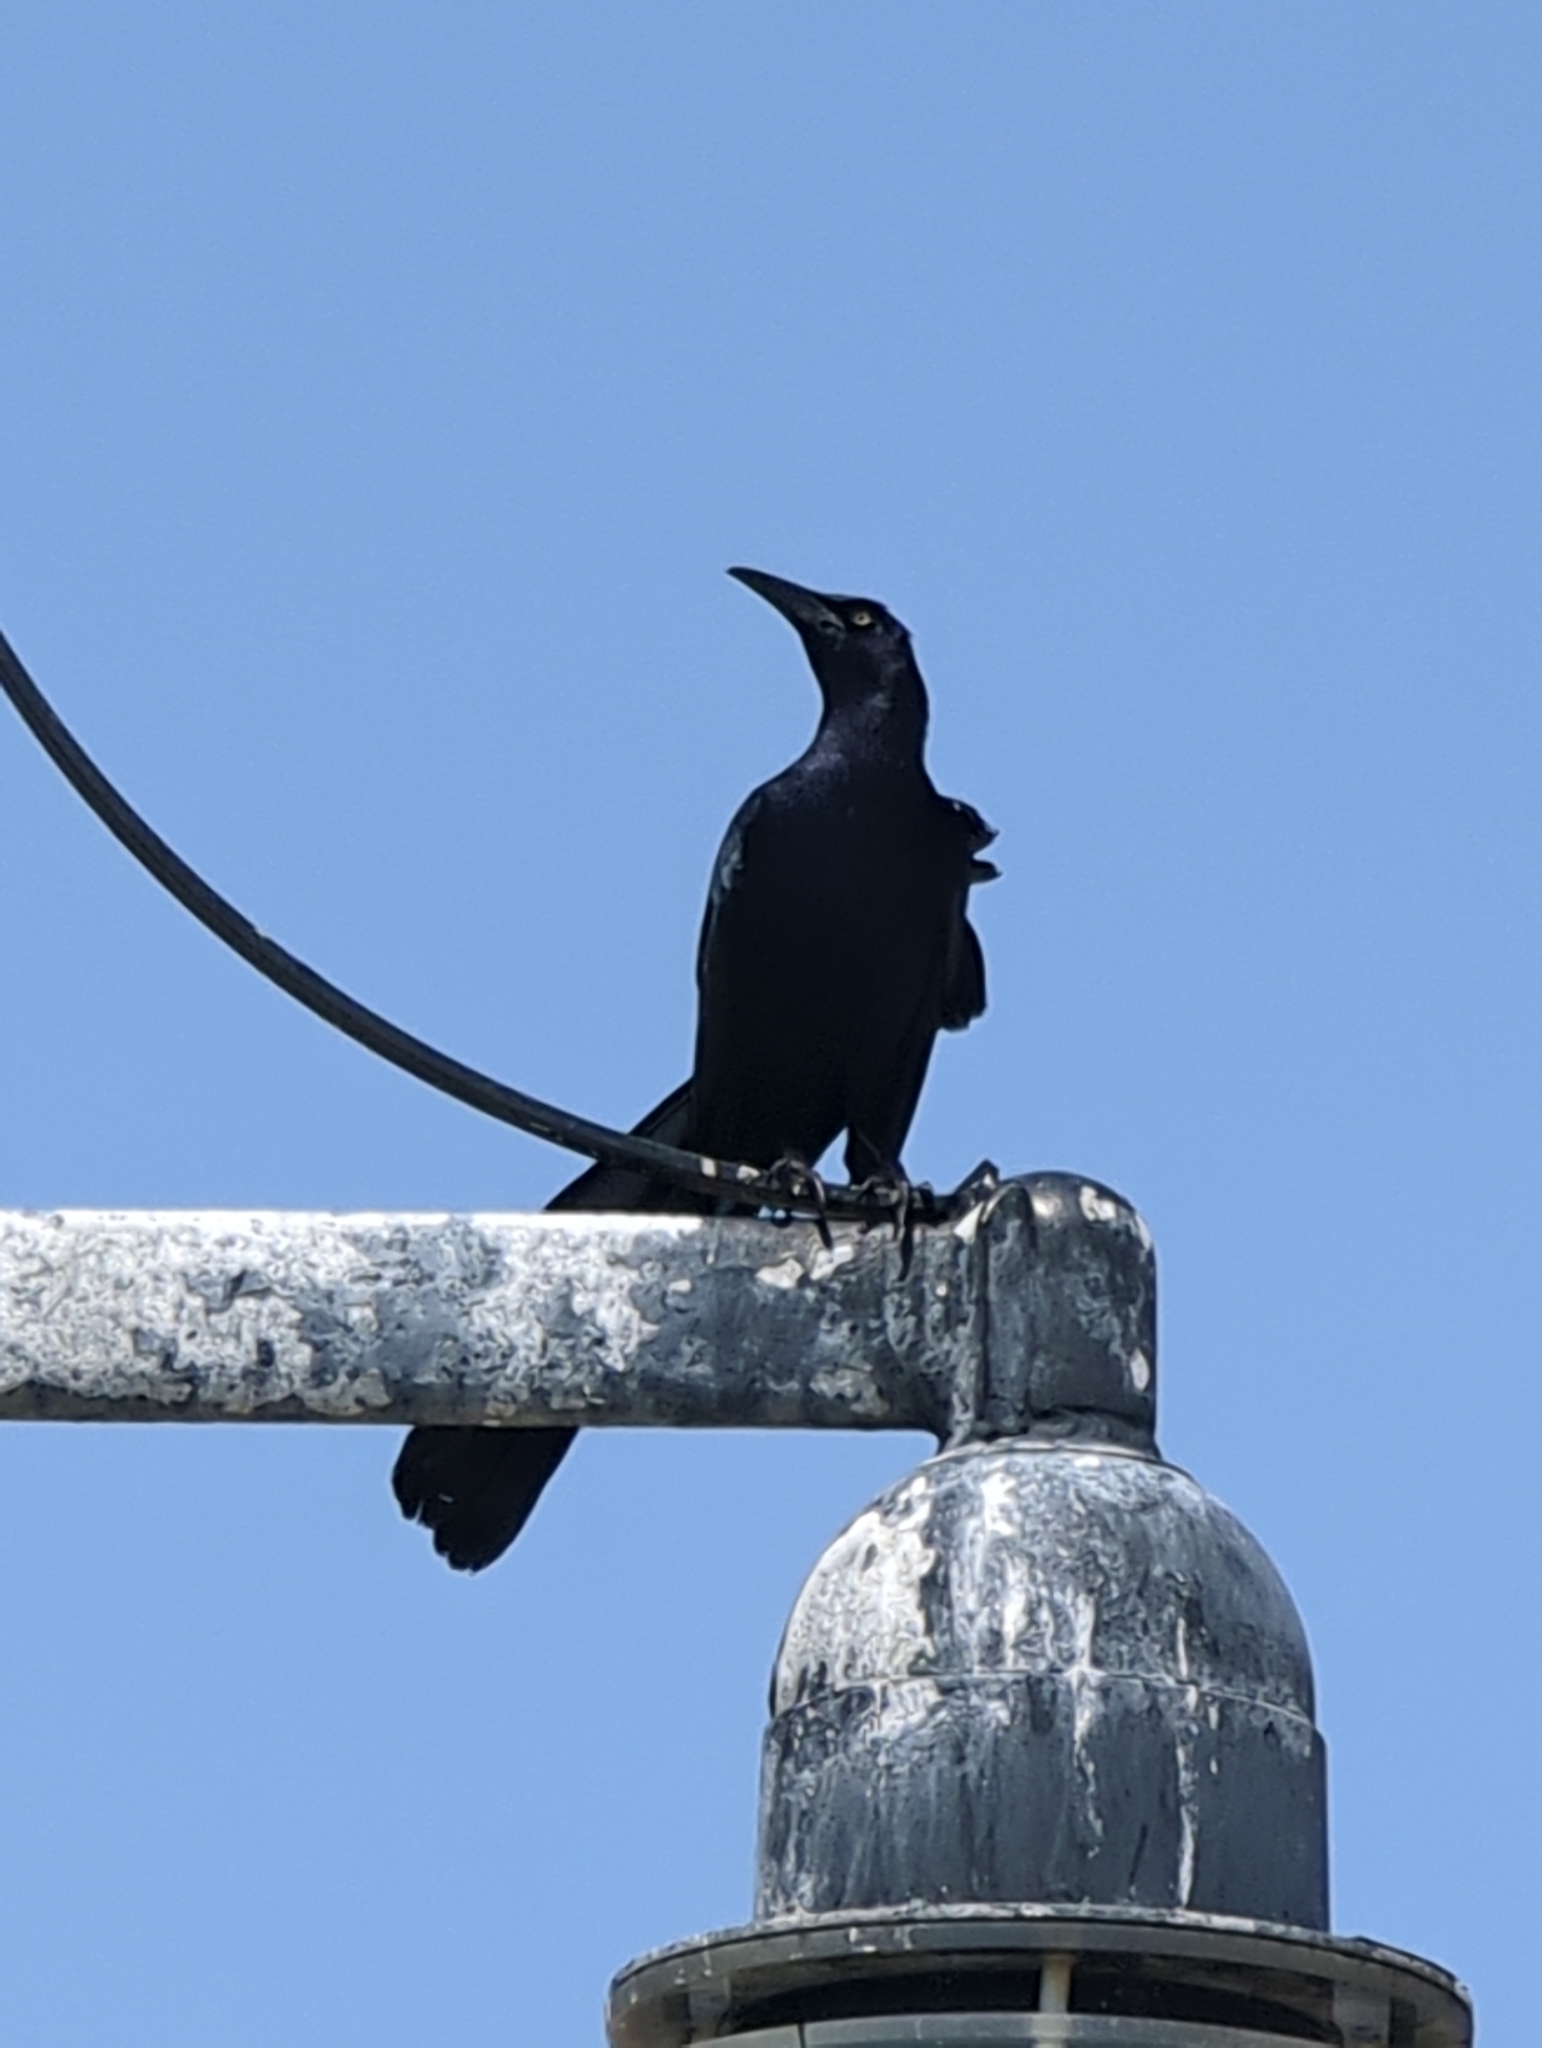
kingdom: Animalia
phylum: Chordata
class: Aves
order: Passeriformes
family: Icteridae
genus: Quiscalus
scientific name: Quiscalus mexicanus
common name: Great-tailed grackle
